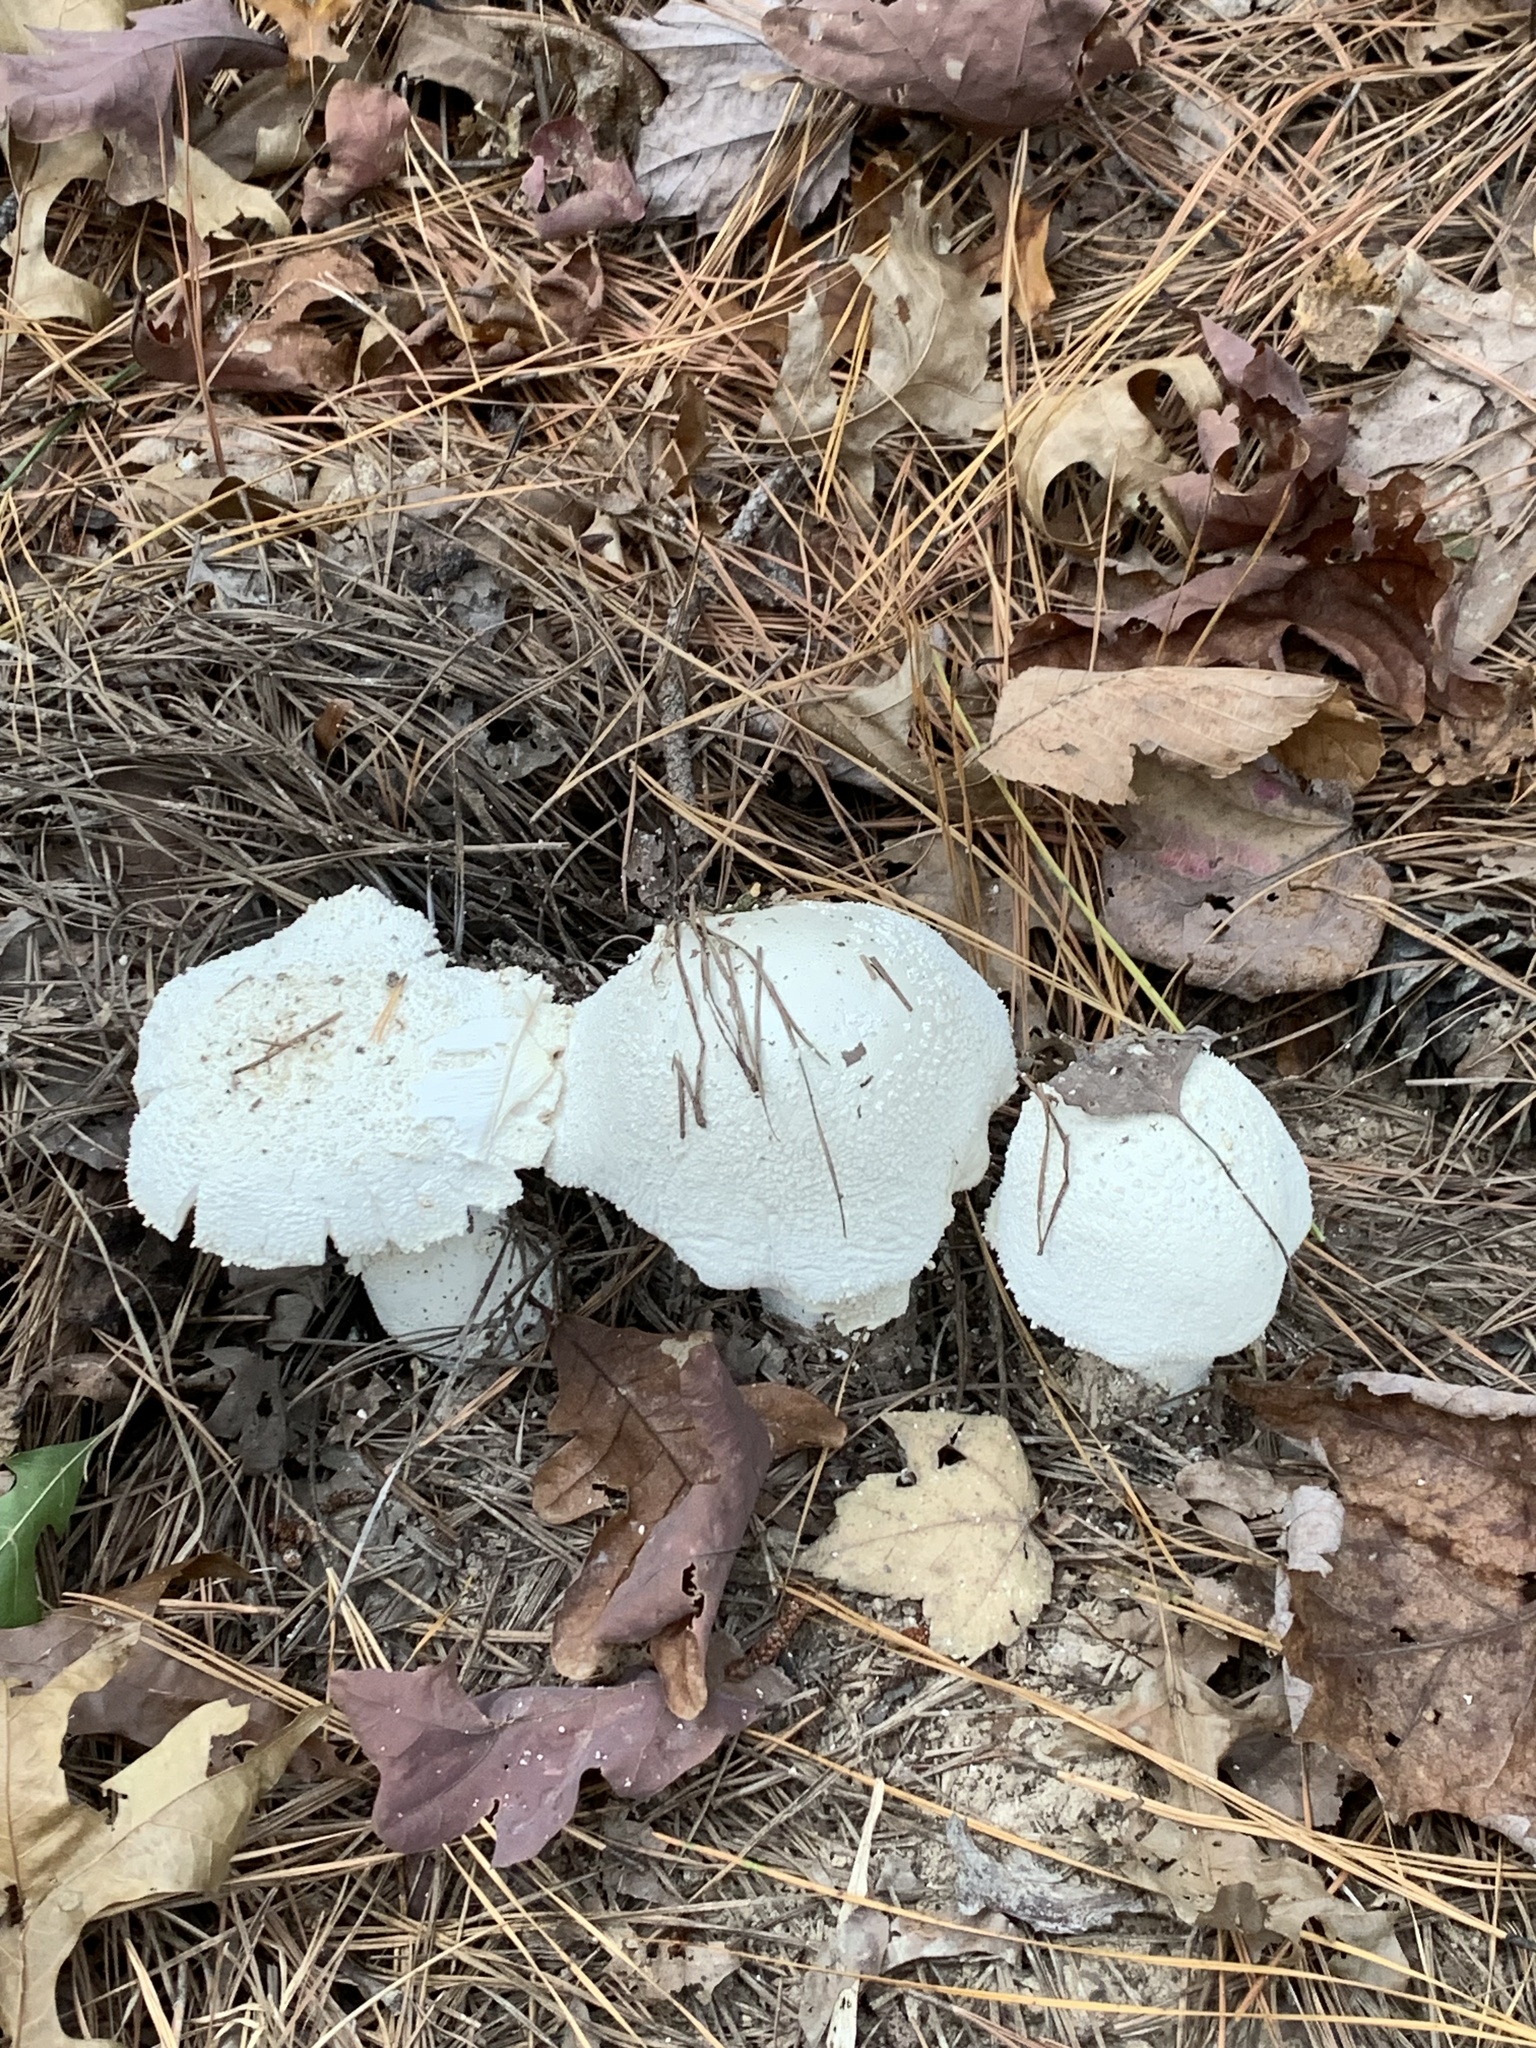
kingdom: Fungi
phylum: Basidiomycota
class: Agaricomycetes
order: Agaricales
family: Amanitaceae
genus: Amanita
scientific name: Amanita polypyramis
